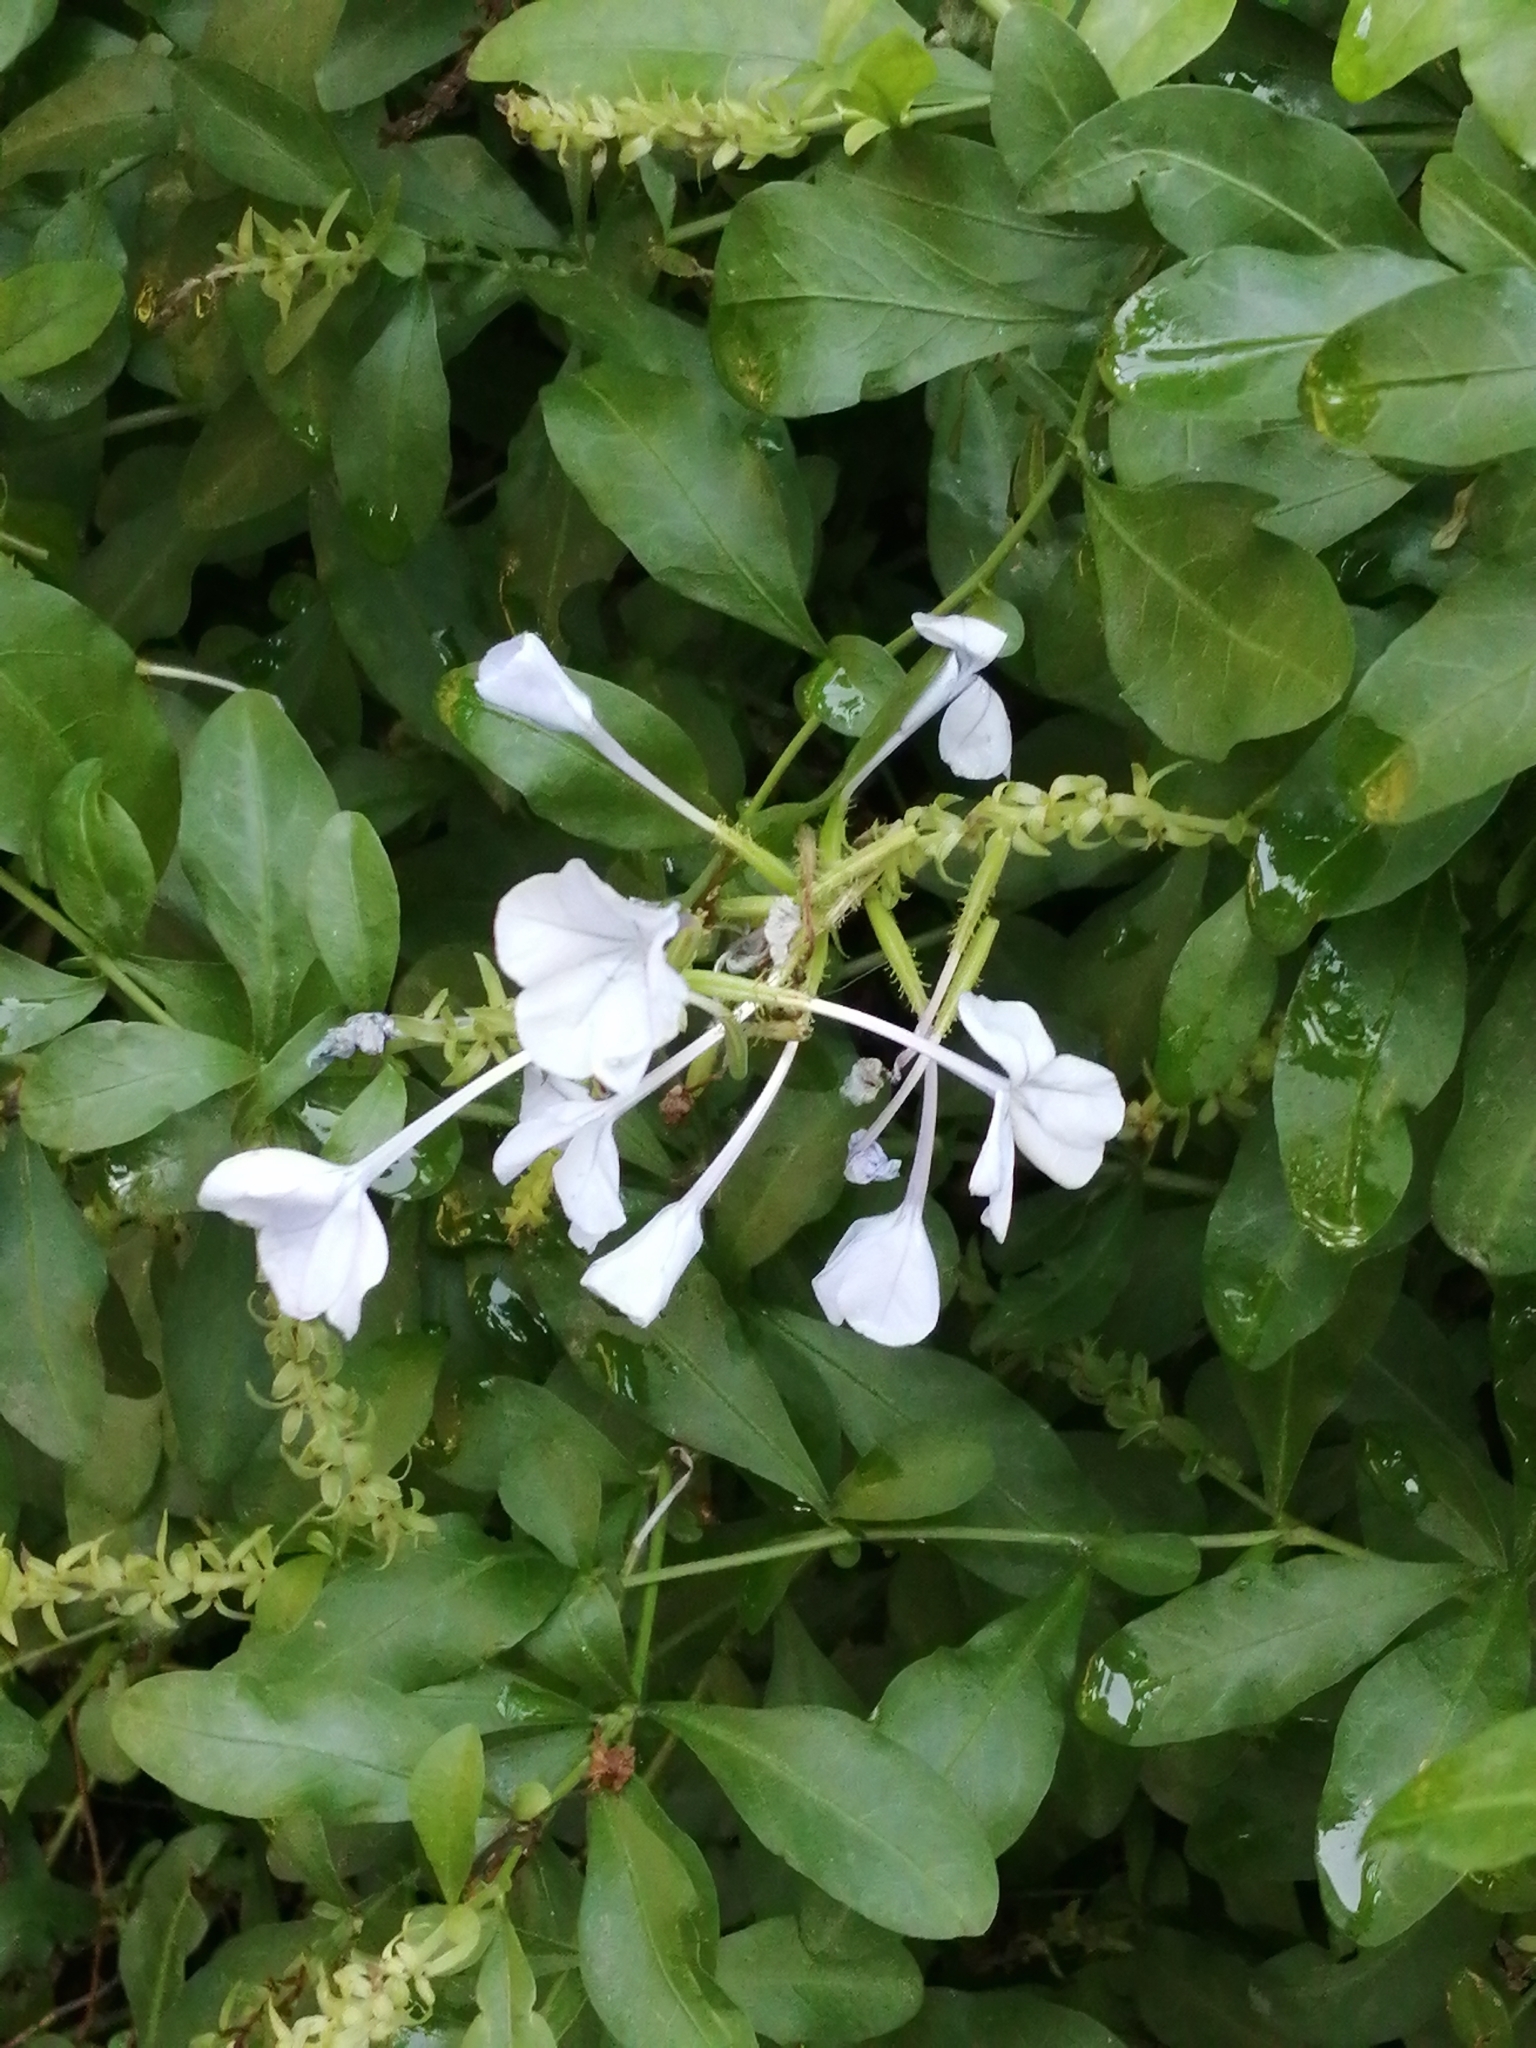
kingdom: Plantae
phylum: Tracheophyta
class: Magnoliopsida
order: Caryophyllales
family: Plumbaginaceae
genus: Plumbago
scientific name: Plumbago auriculata
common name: Cape leadwort
